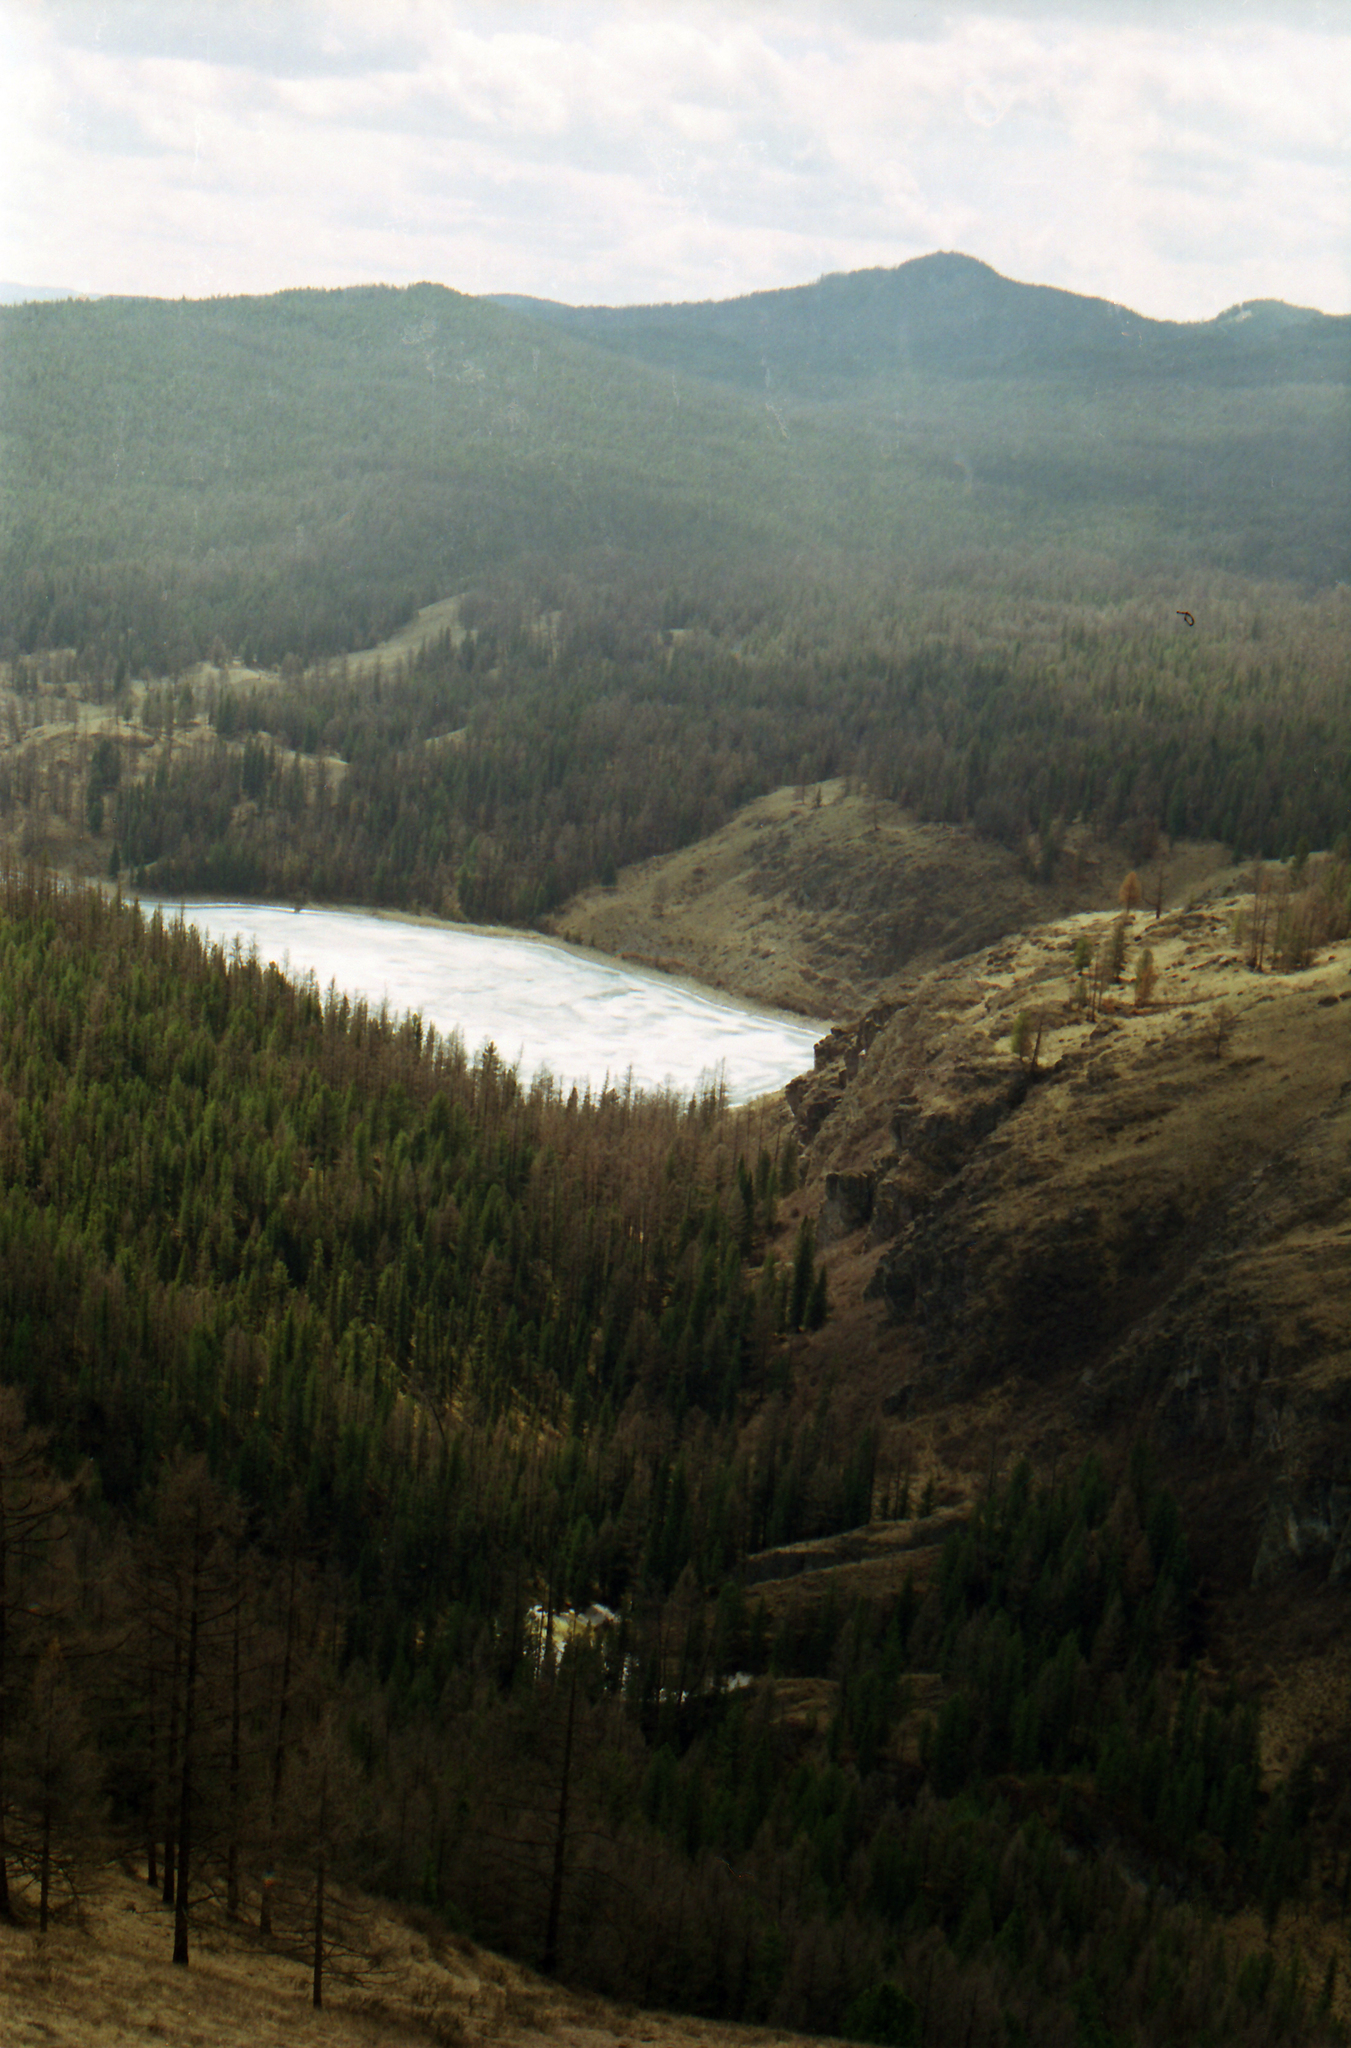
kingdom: Plantae
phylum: Tracheophyta
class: Pinopsida
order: Pinales
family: Pinaceae
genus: Picea
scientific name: Picea obovata
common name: Siberian spruce
